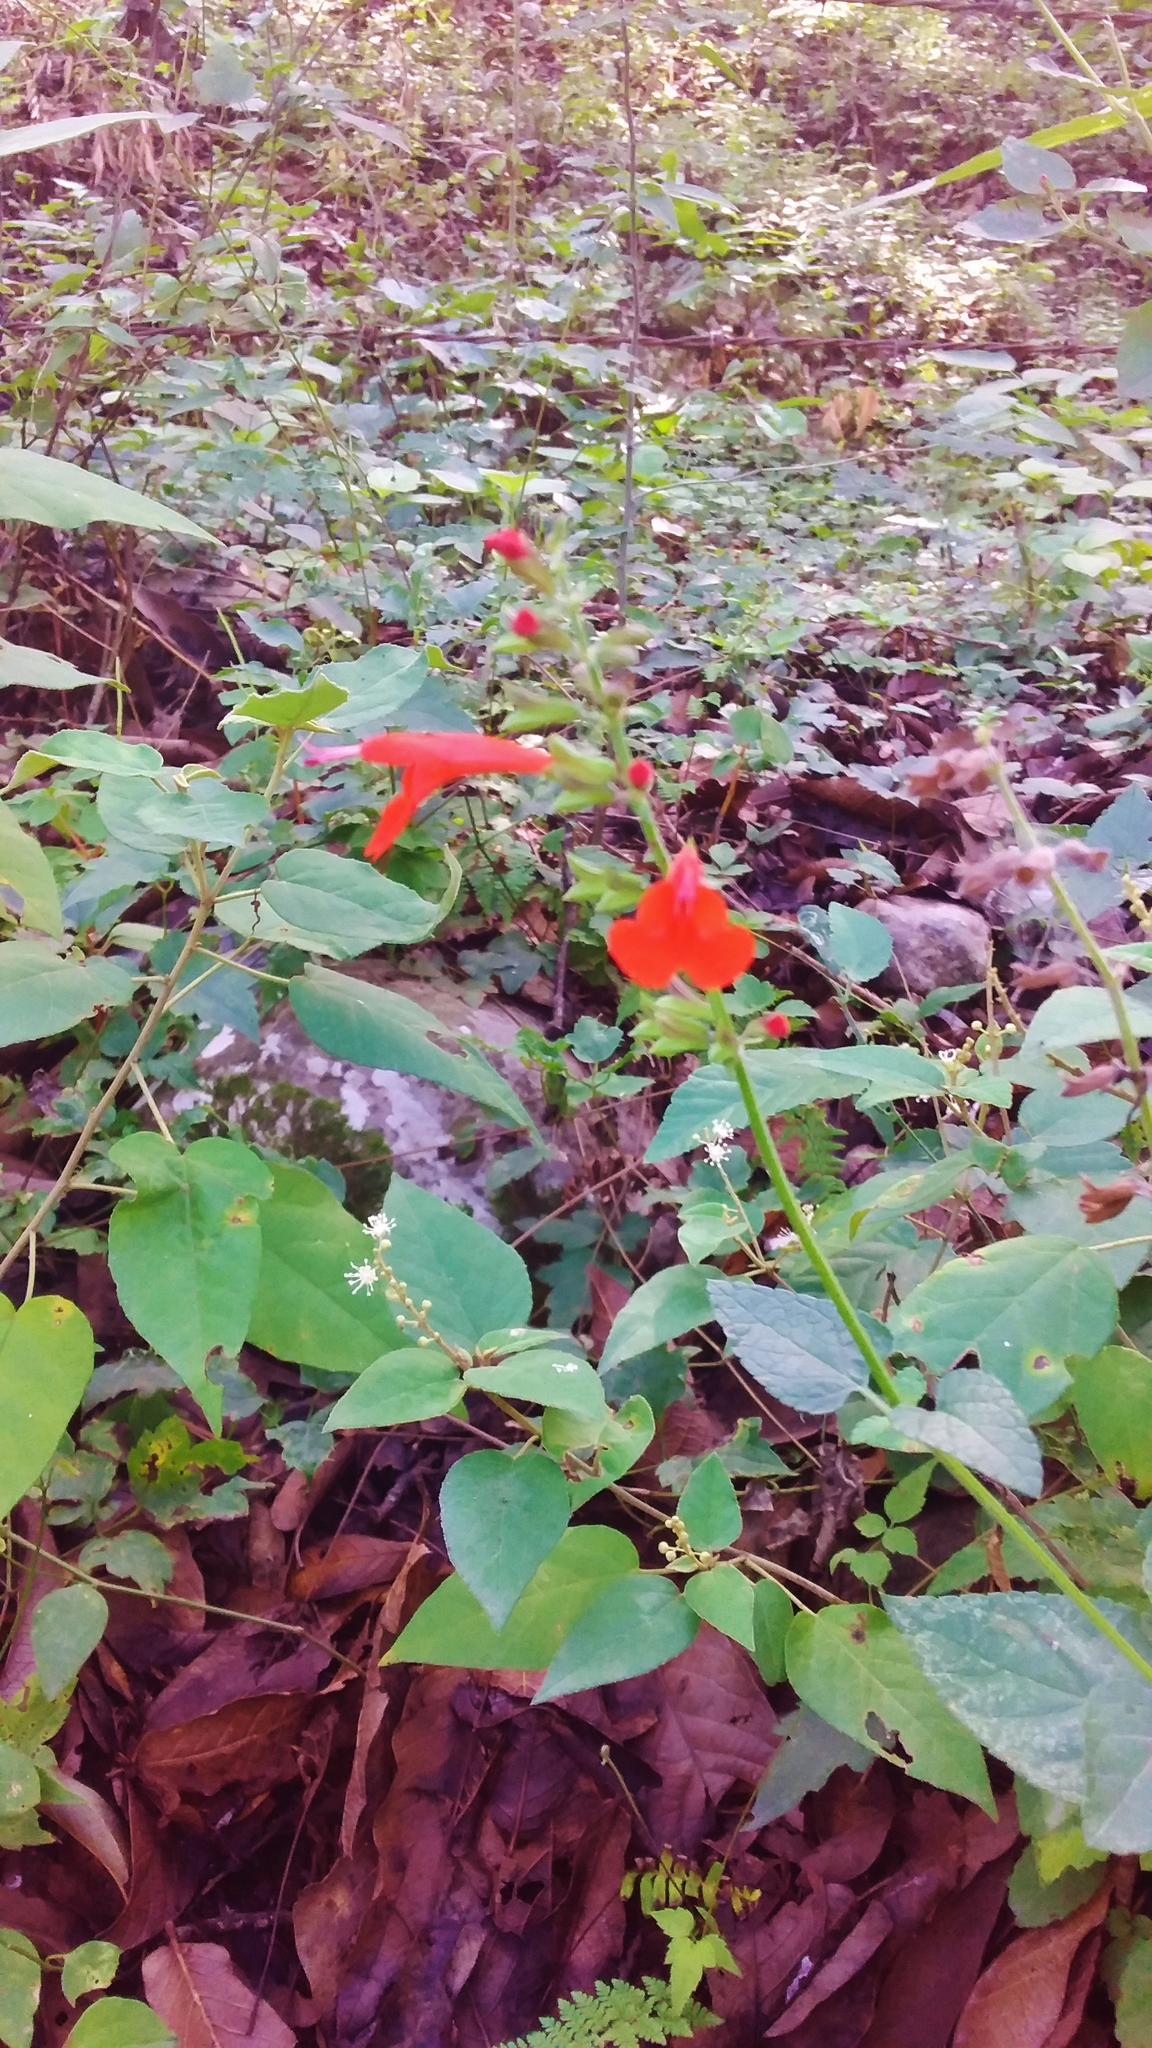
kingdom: Plantae
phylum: Tracheophyta
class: Magnoliopsida
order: Lamiales
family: Lamiaceae
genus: Salvia
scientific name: Salvia coccinea
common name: Blood sage
